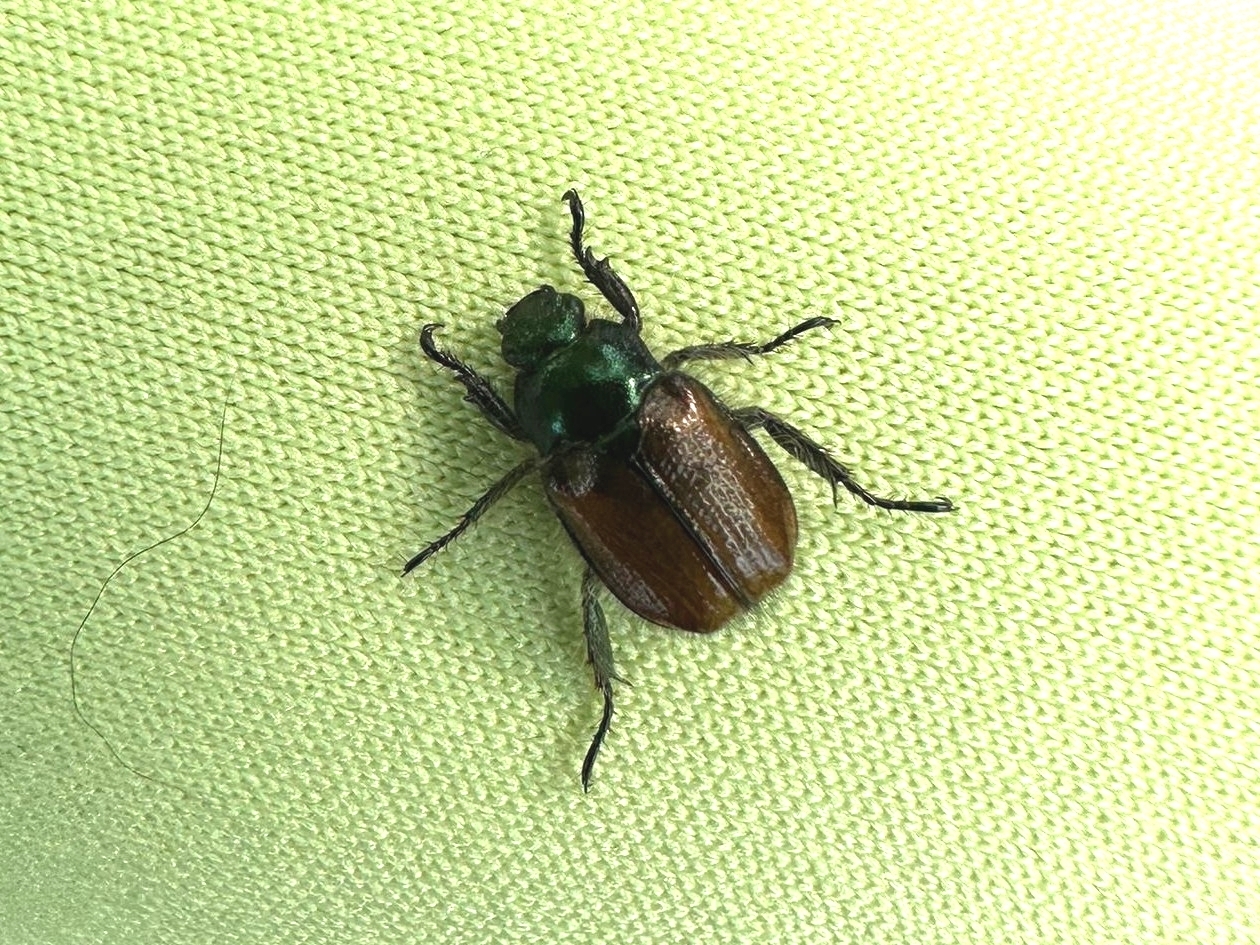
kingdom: Animalia
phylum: Arthropoda
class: Insecta
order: Coleoptera
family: Scarabaeidae
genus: Phyllopertha
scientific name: Phyllopertha horticola
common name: Garden chafer
